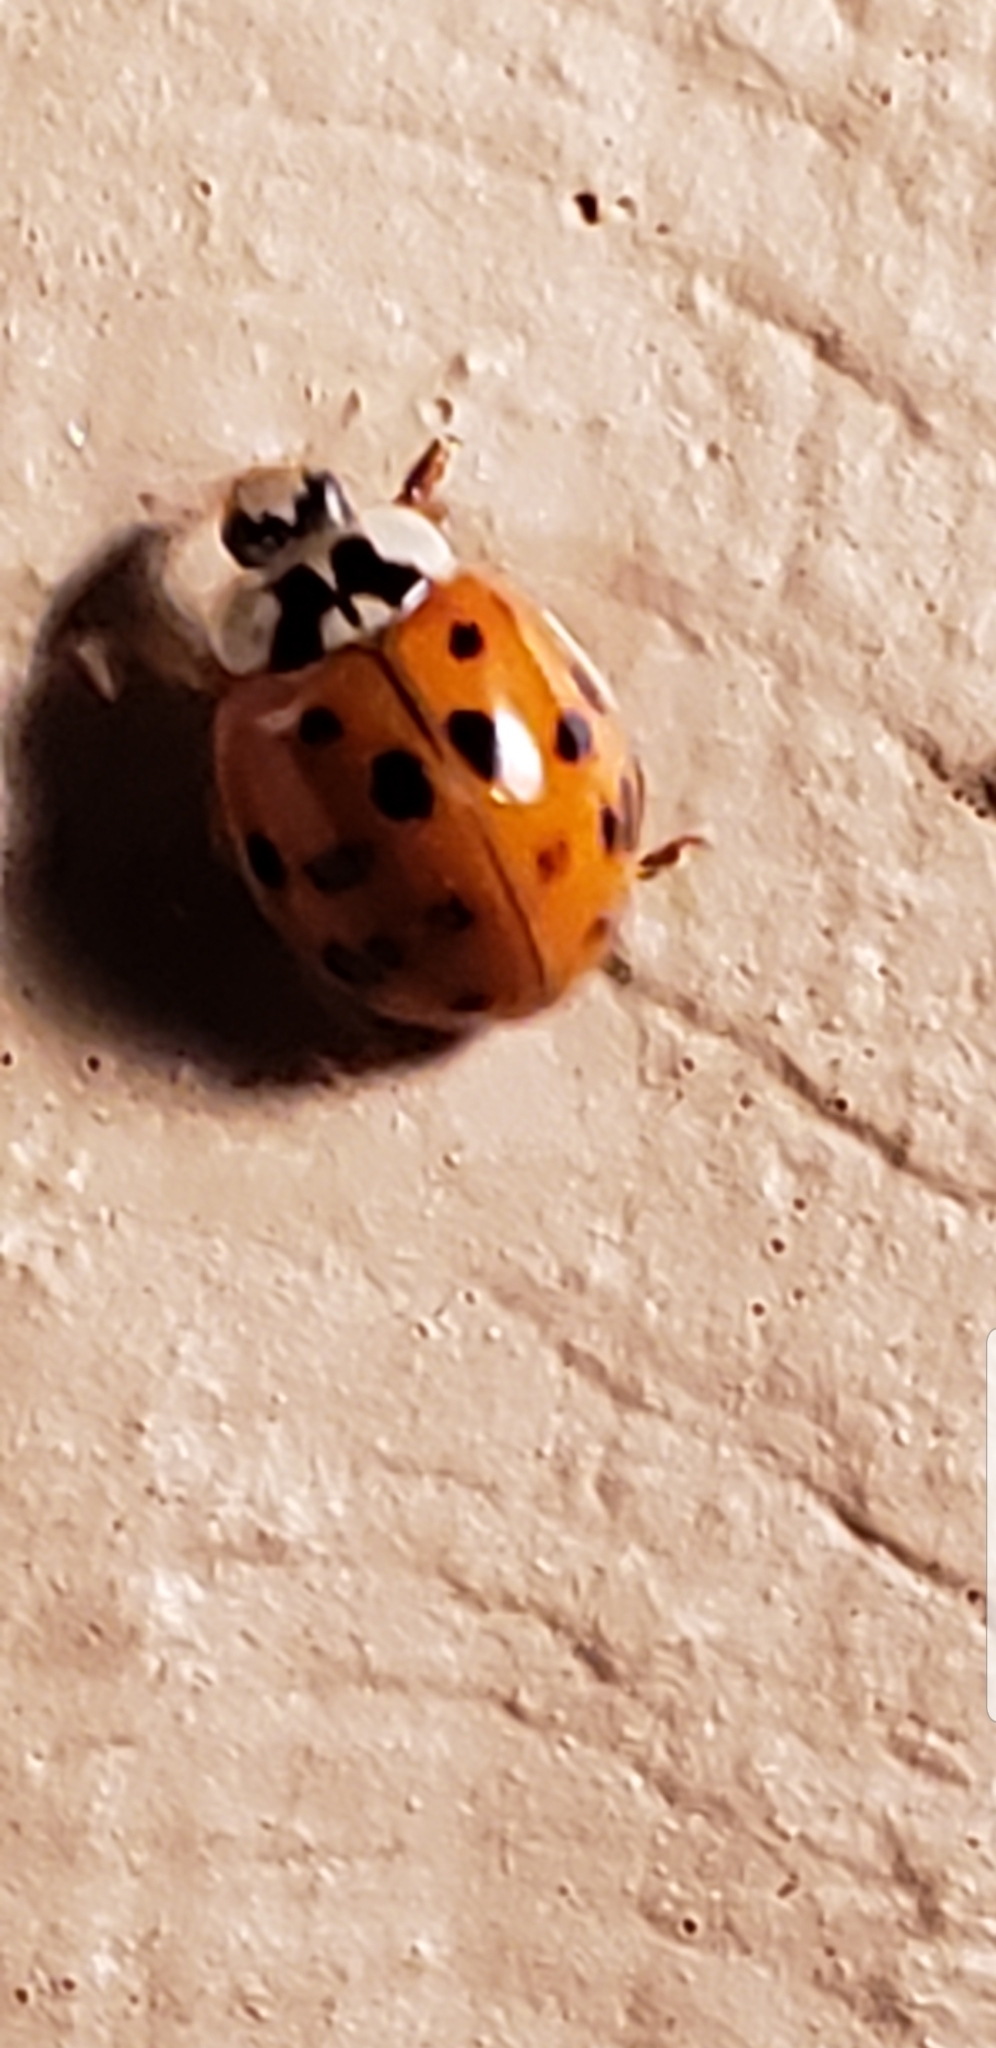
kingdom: Animalia
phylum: Arthropoda
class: Insecta
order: Coleoptera
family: Coccinellidae
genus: Harmonia
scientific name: Harmonia axyridis
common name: Harlequin ladybird
